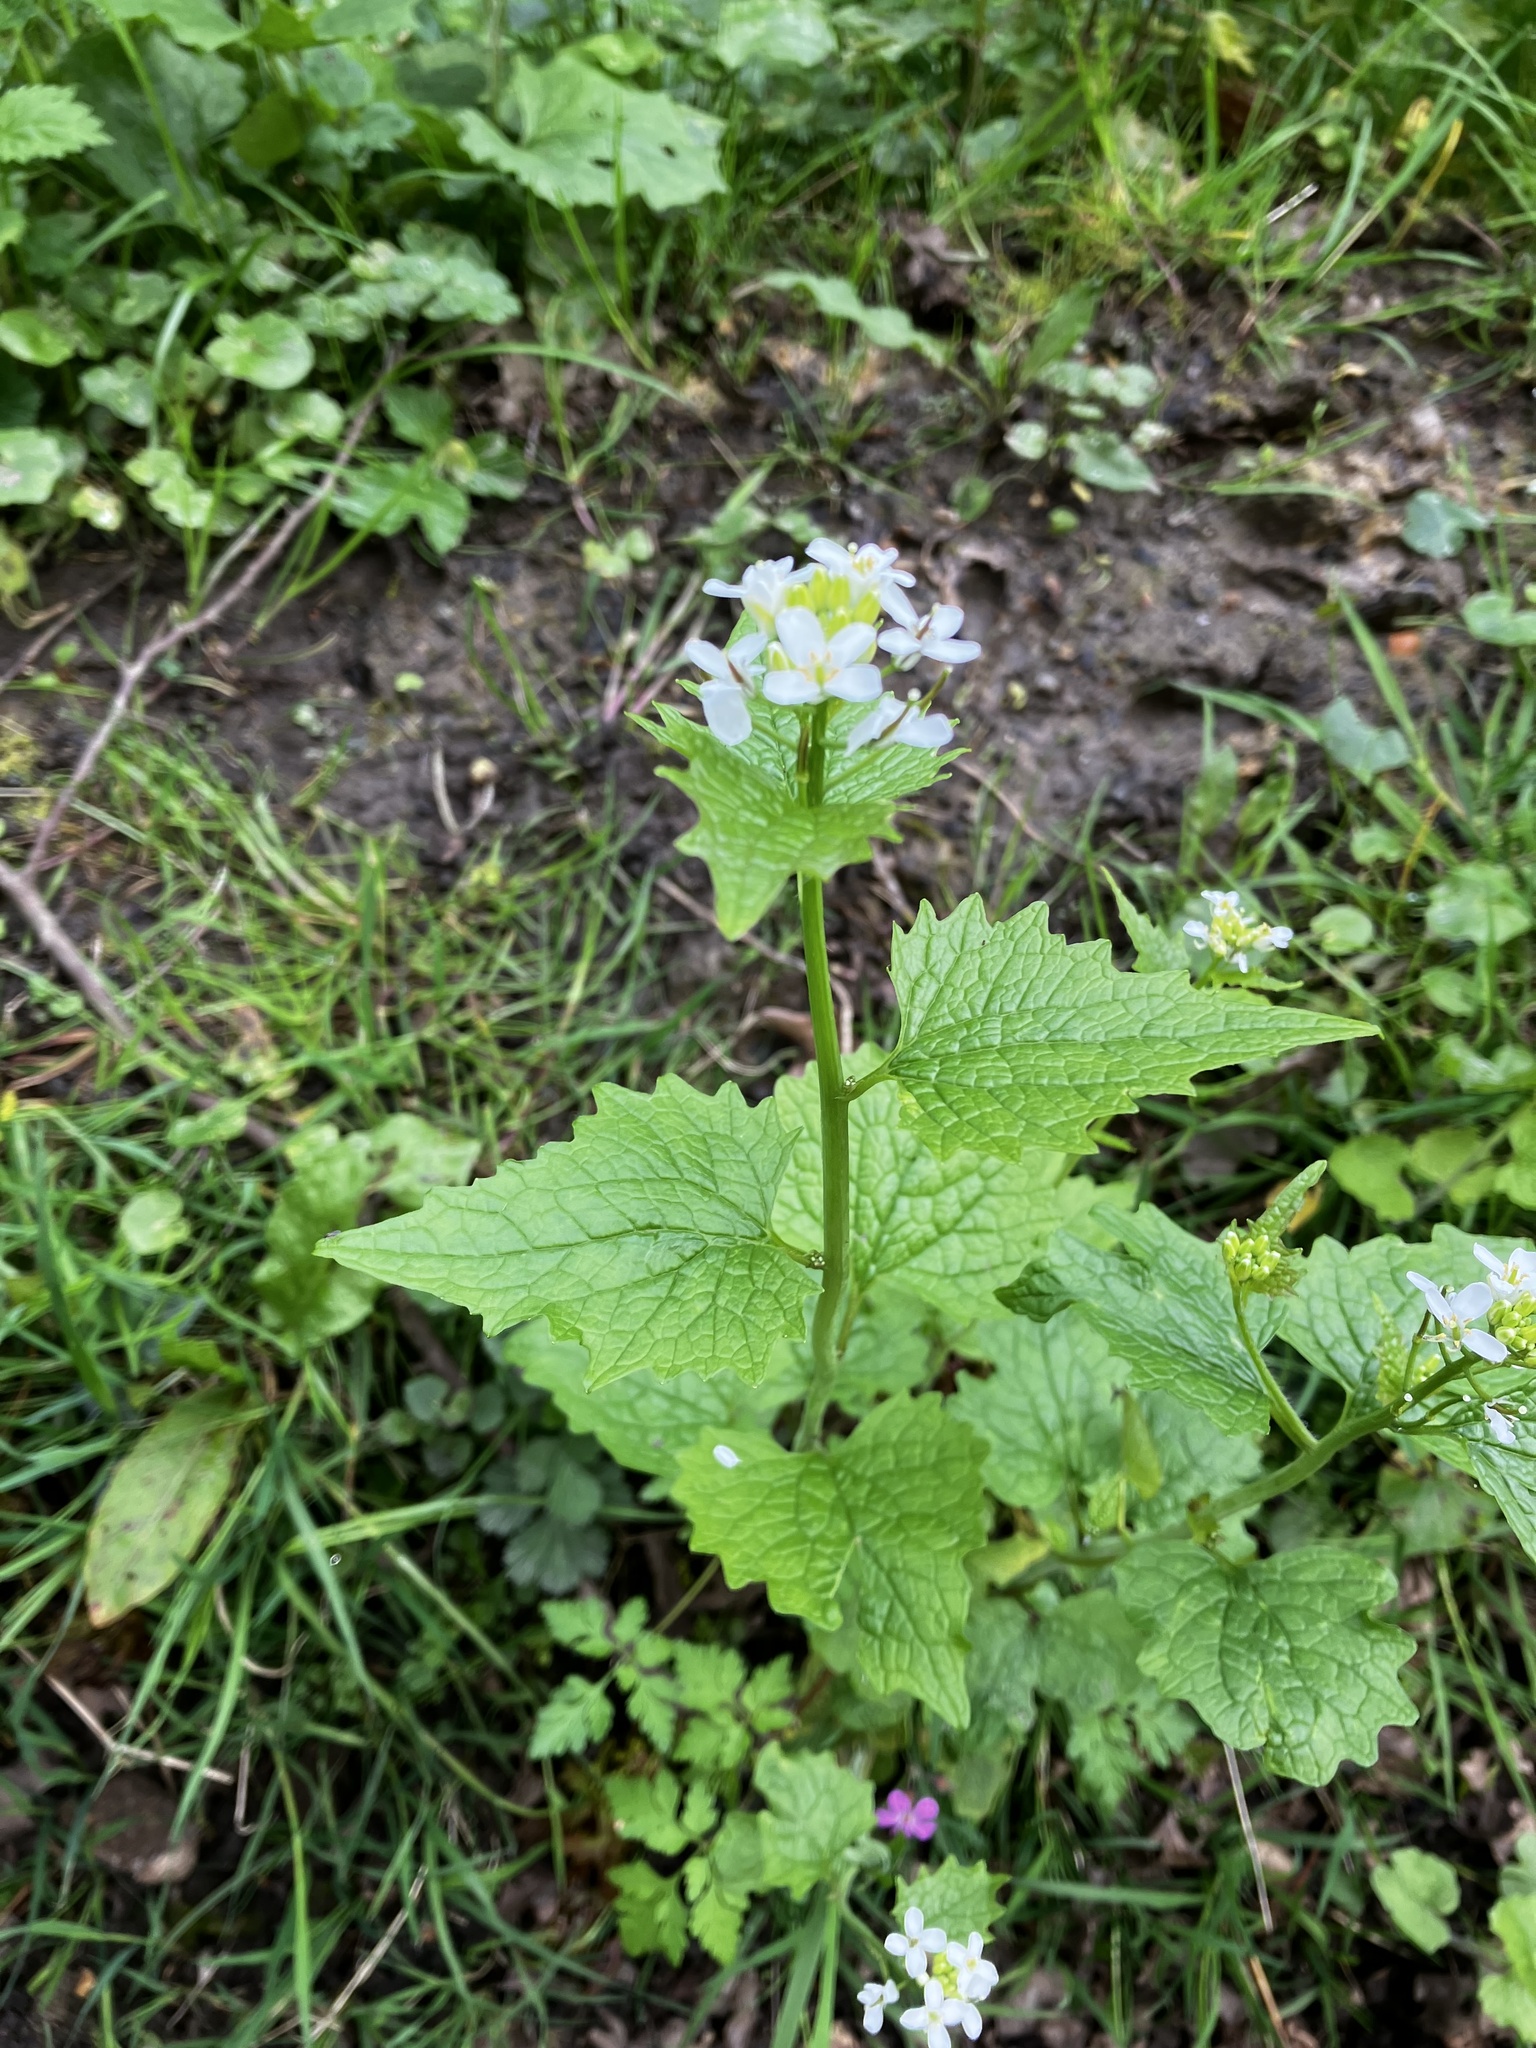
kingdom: Plantae
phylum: Tracheophyta
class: Magnoliopsida
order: Brassicales
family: Brassicaceae
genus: Alliaria
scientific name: Alliaria petiolata
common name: Garlic mustard
